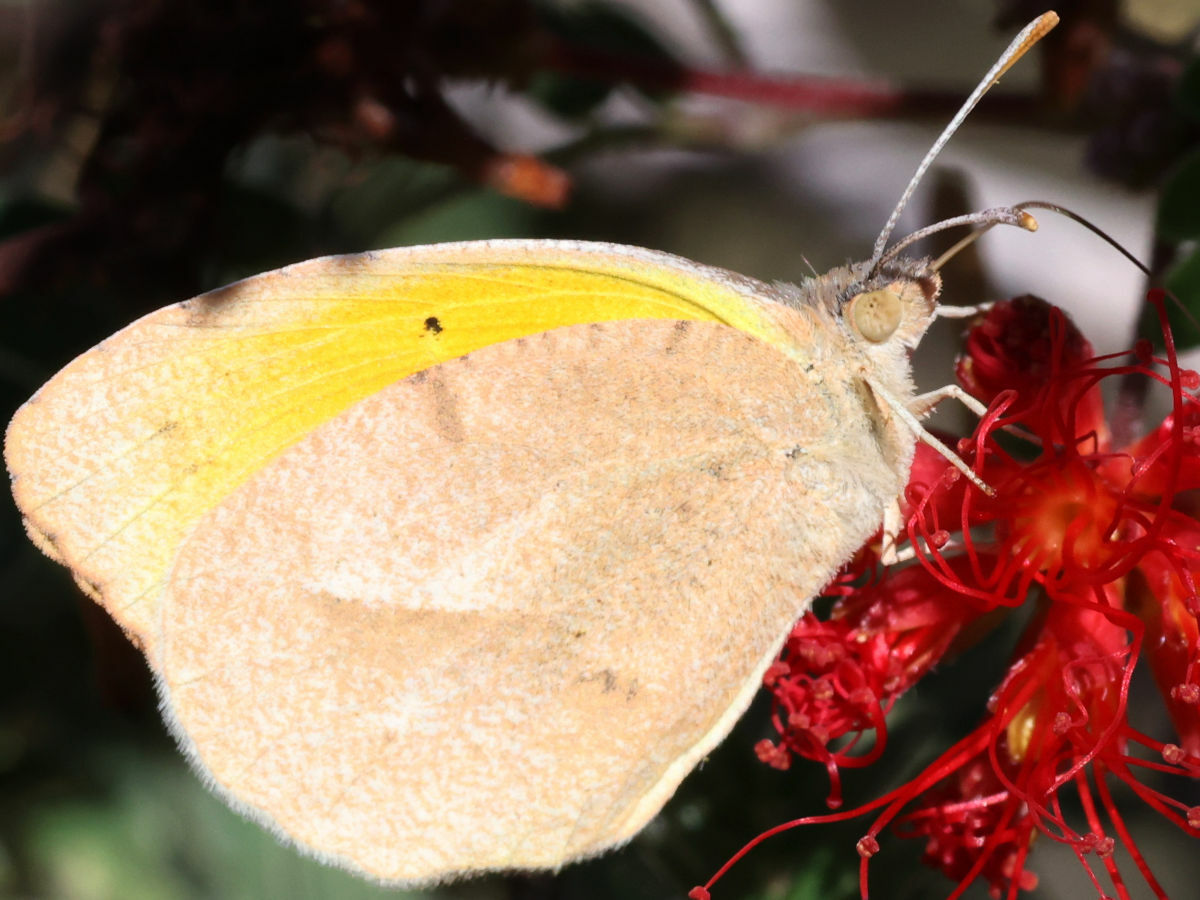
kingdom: Animalia
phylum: Arthropoda
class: Insecta
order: Lepidoptera
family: Pieridae
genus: Abaeis
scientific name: Abaeis nicippe
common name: Sleepy orange
